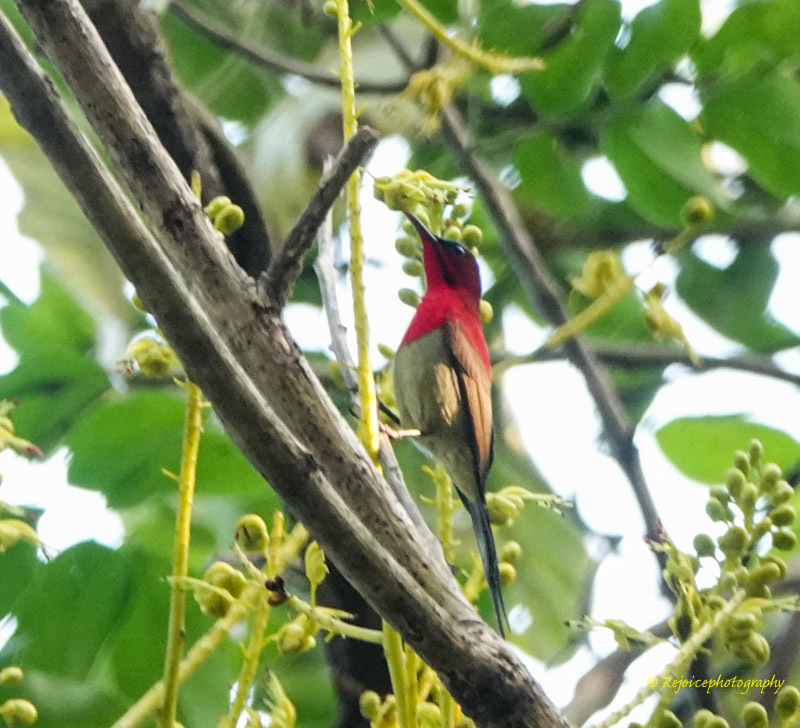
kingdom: Animalia
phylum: Chordata
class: Aves
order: Passeriformes
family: Nectariniidae
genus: Aethopyga
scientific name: Aethopyga siparaja
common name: Crimson sunbird
